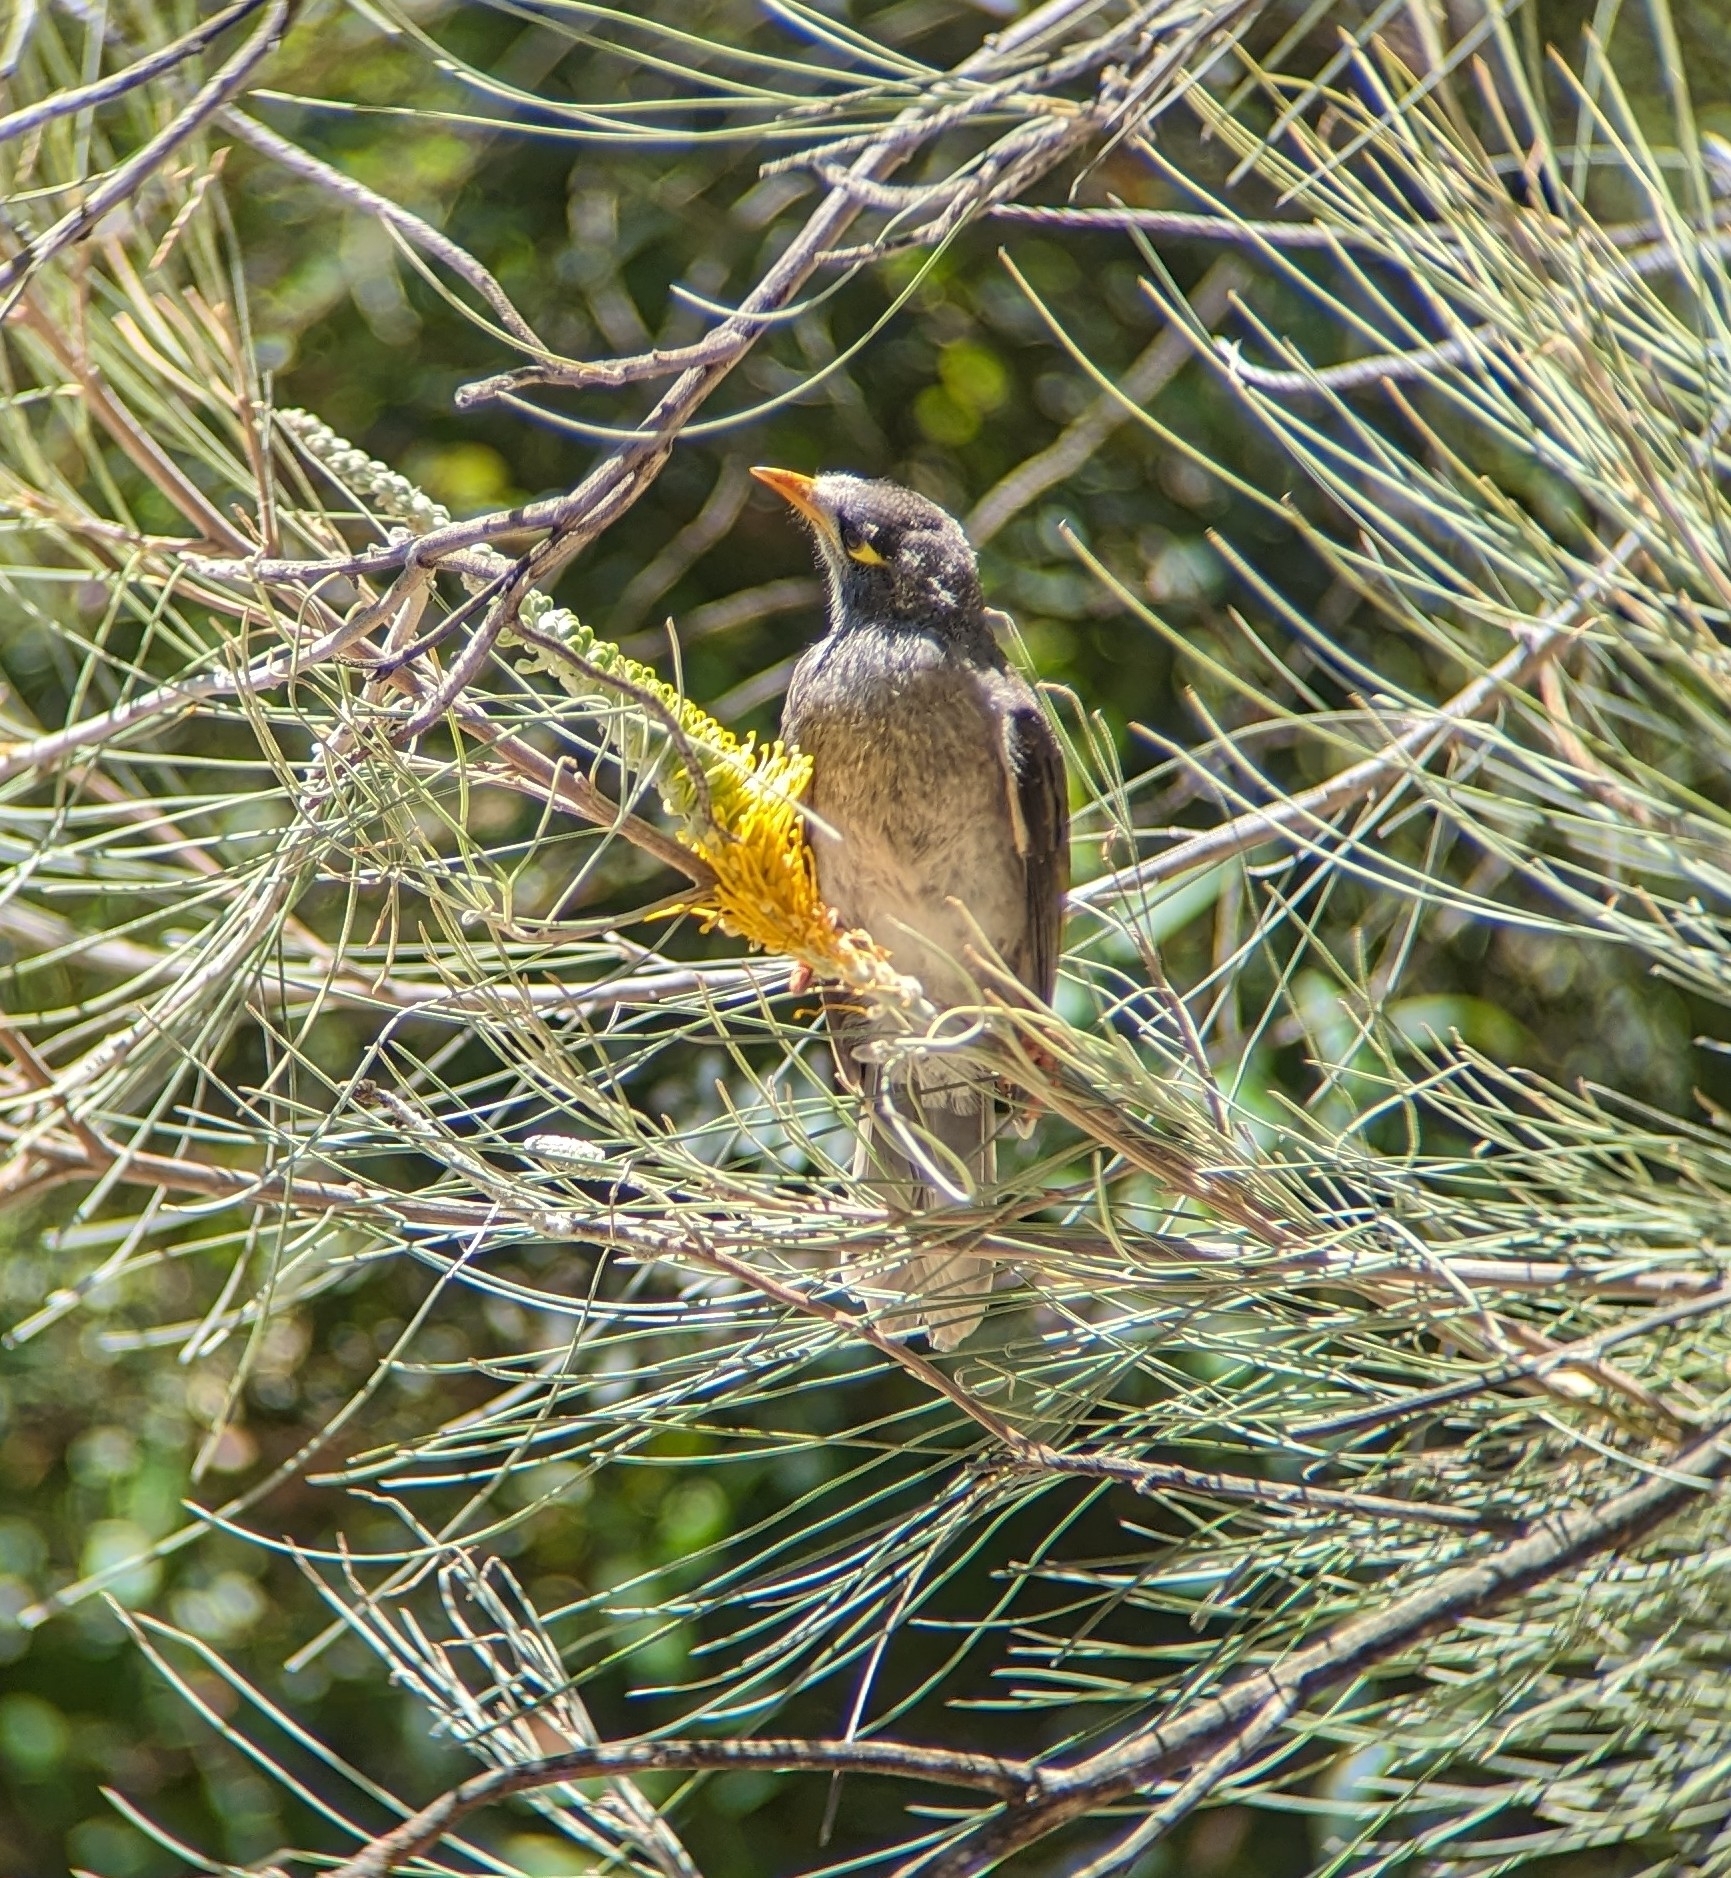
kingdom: Animalia
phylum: Chordata
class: Aves
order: Passeriformes
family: Meliphagidae
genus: Manorina
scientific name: Manorina melanocephala
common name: Noisy miner
